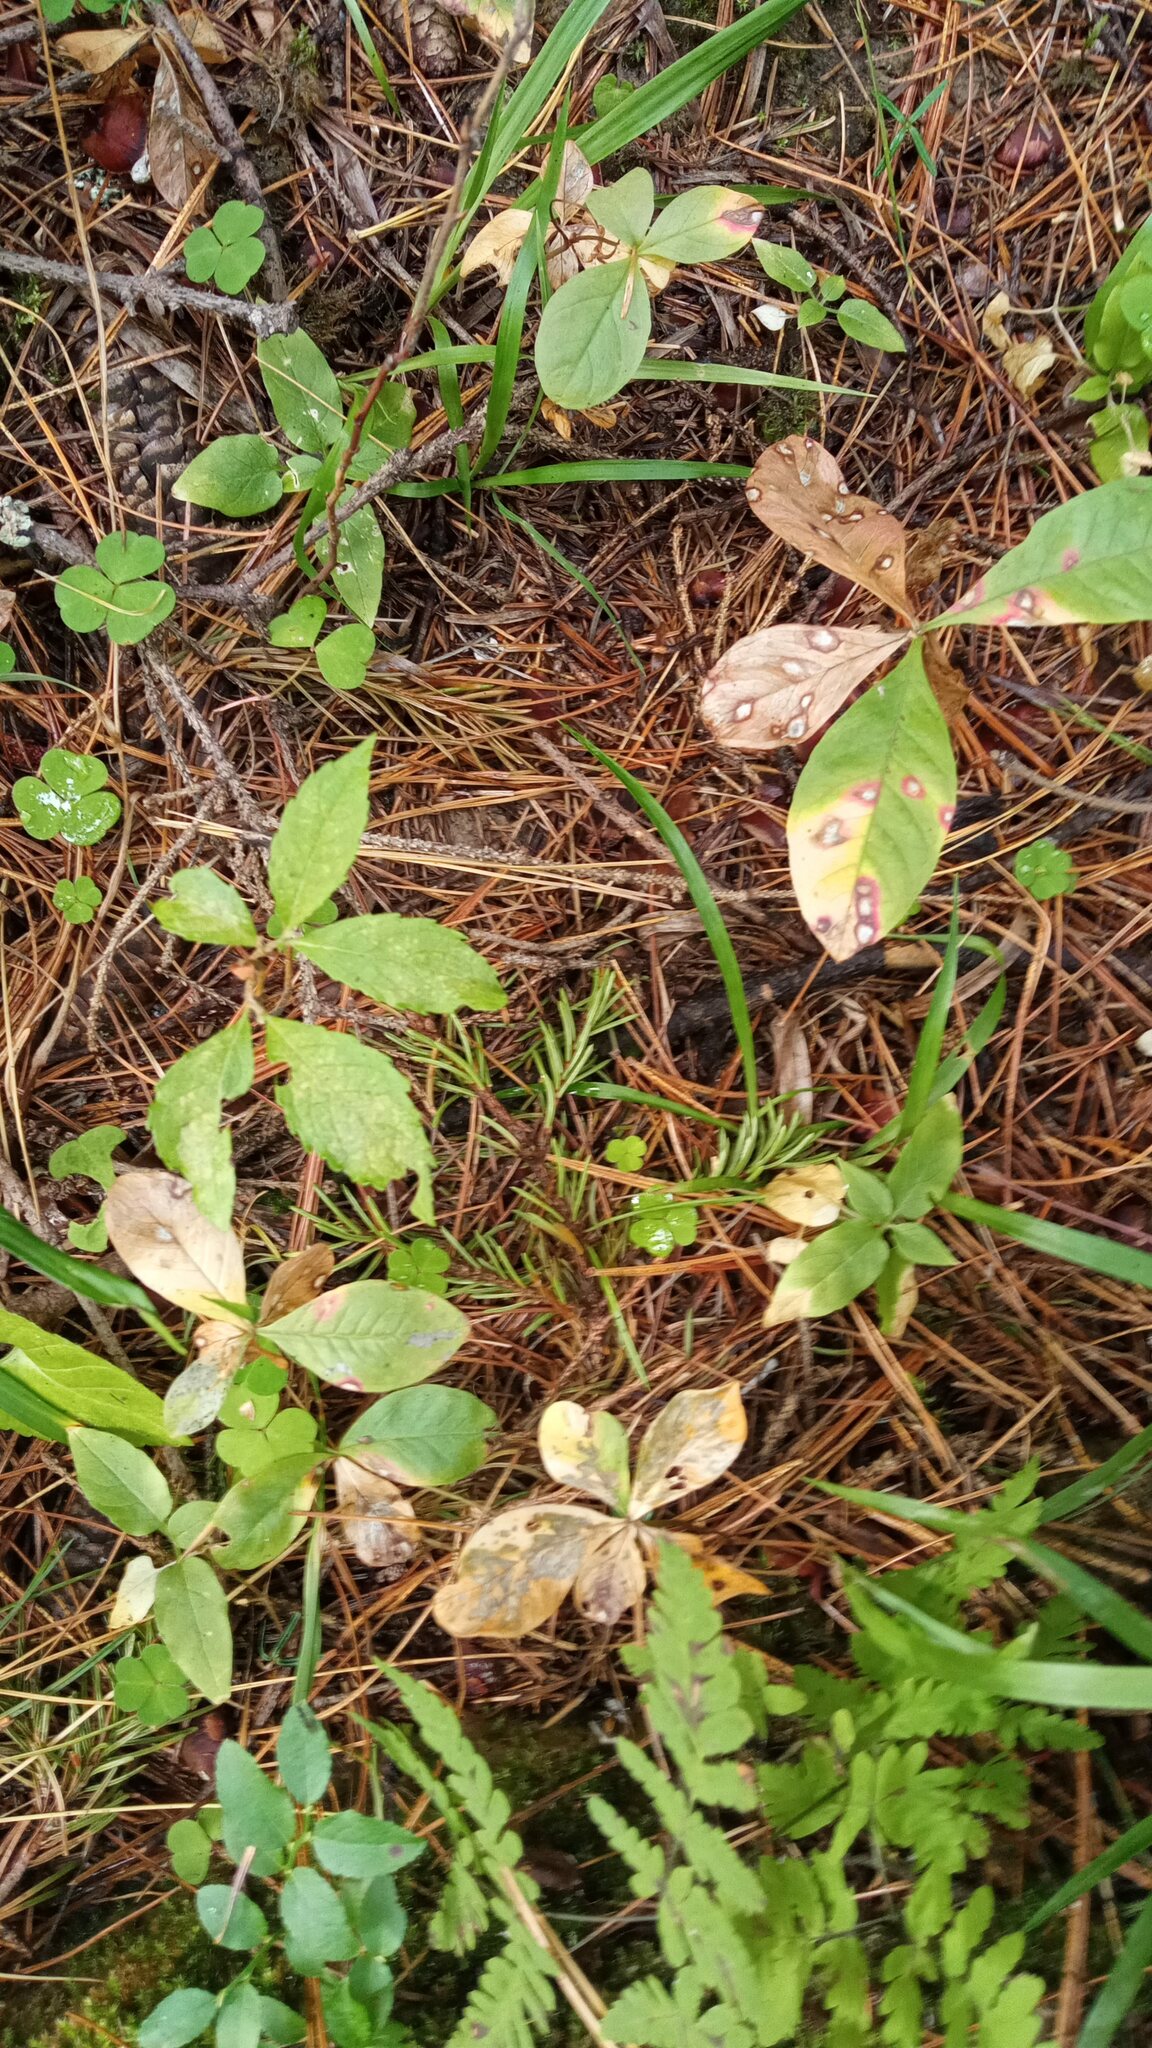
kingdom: Plantae
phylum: Tracheophyta
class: Magnoliopsida
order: Ericales
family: Primulaceae
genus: Lysimachia
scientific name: Lysimachia europaea
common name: Arctic starflower
